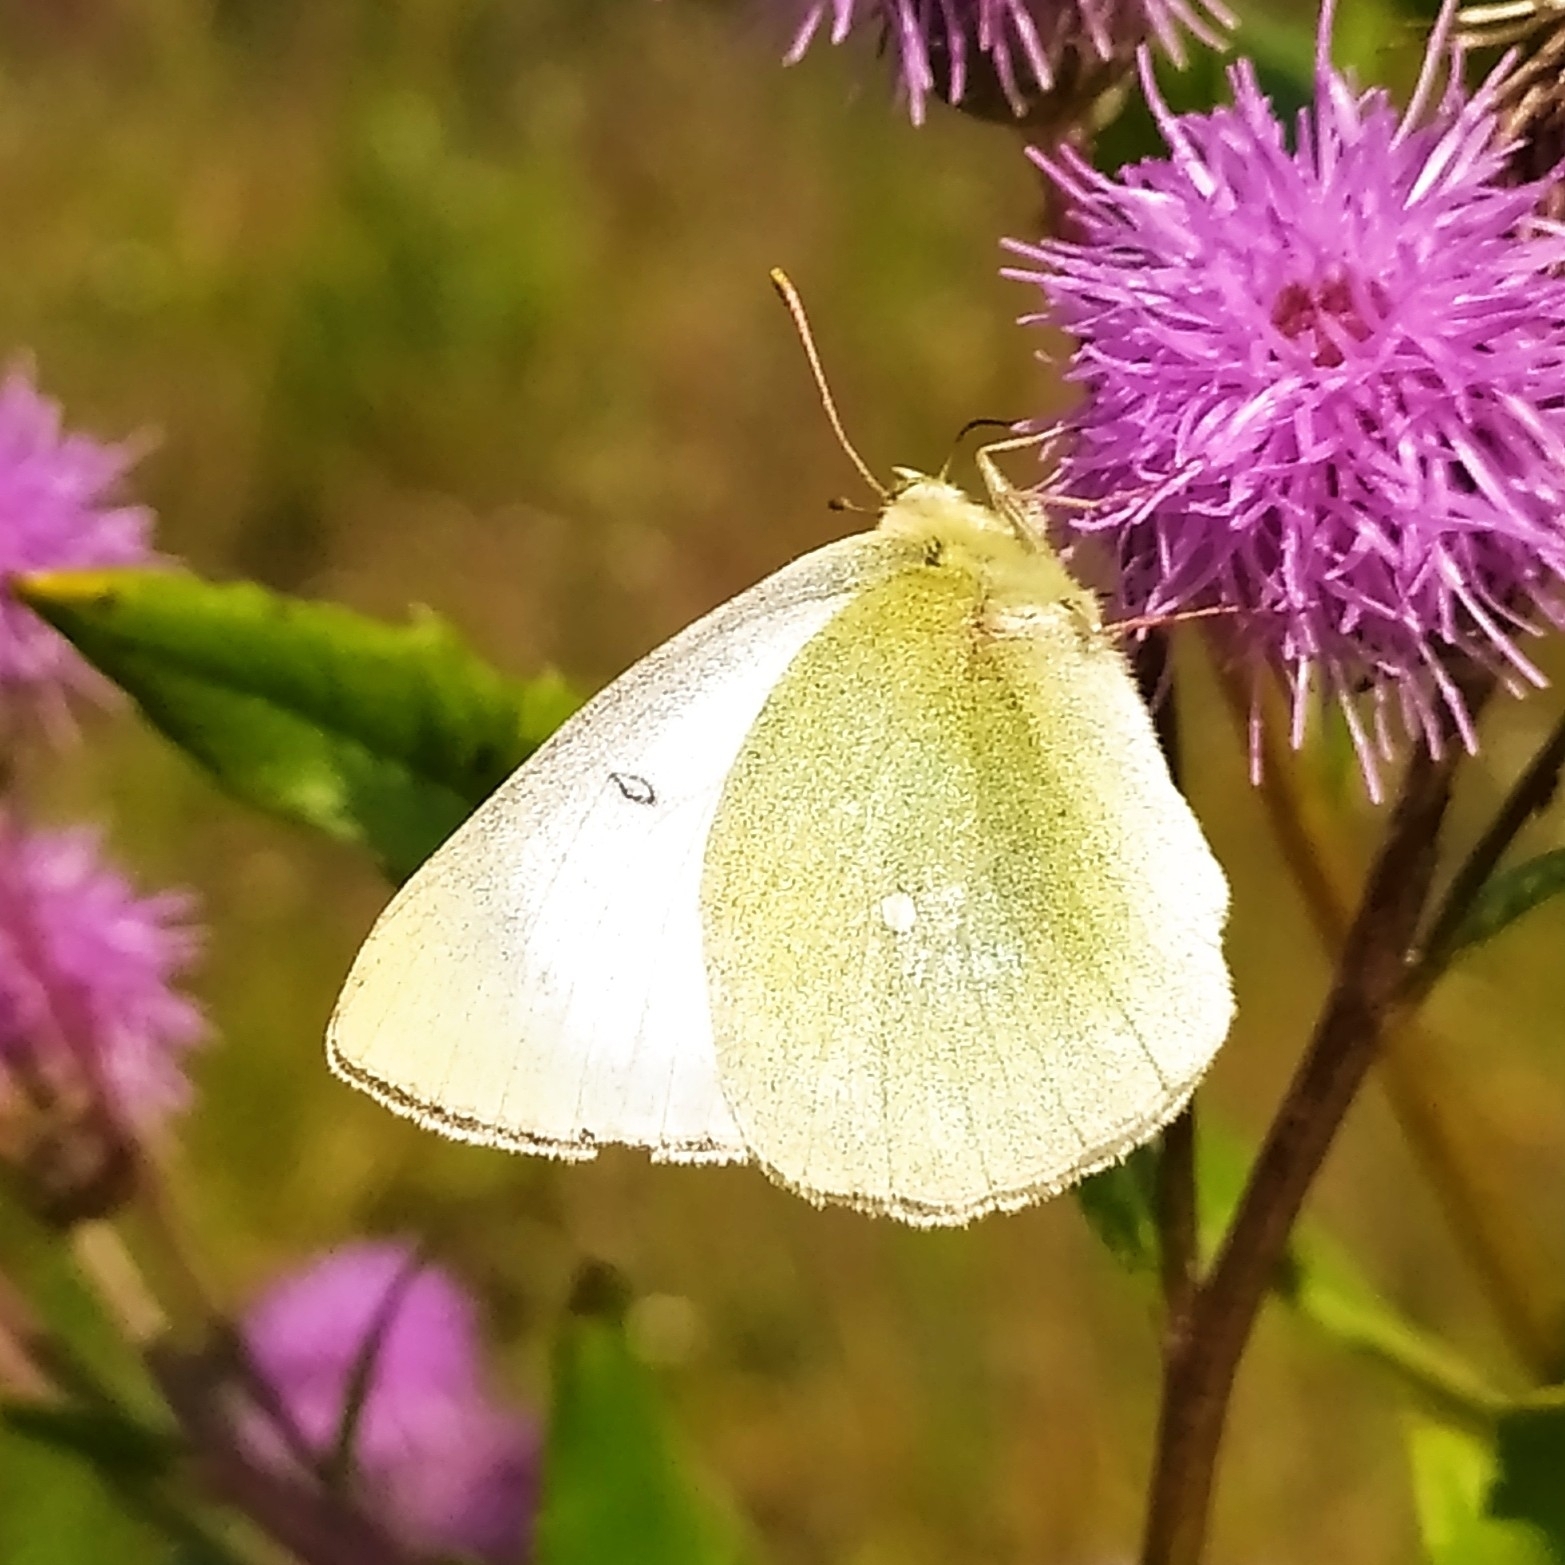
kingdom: Animalia
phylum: Arthropoda
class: Insecta
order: Lepidoptera
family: Pieridae
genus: Colias
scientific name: Colias palaeno
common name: Moorland clouded yellow
